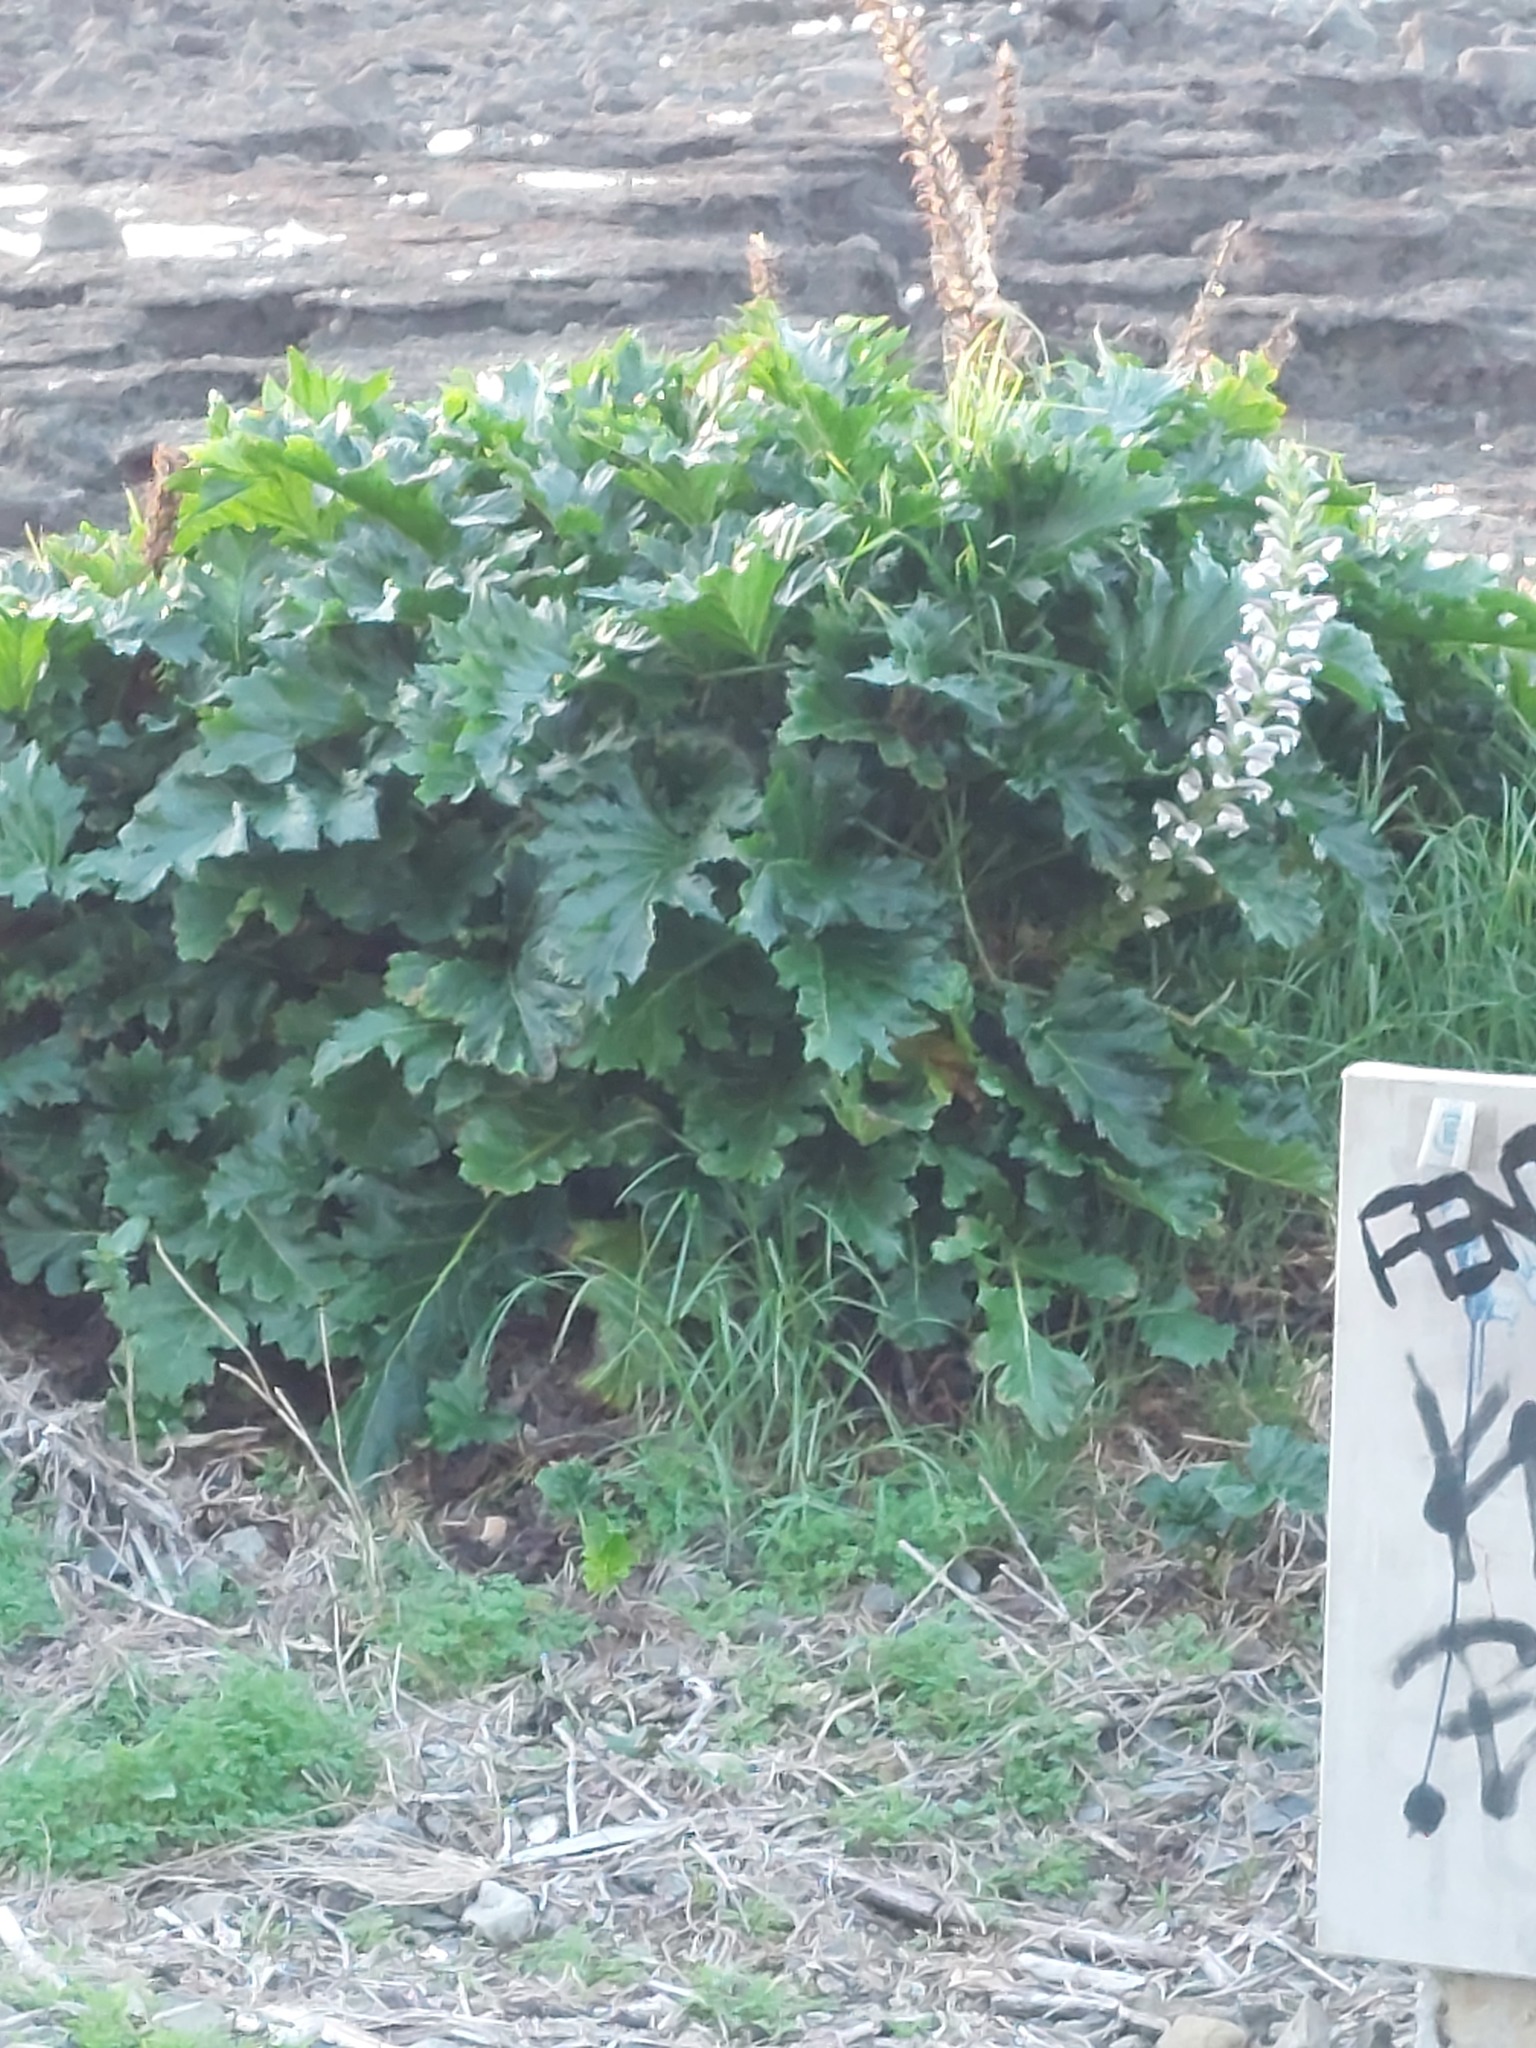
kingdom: Plantae
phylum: Tracheophyta
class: Magnoliopsida
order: Lamiales
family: Acanthaceae
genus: Acanthus
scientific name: Acanthus mollis
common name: Bear's-breech
